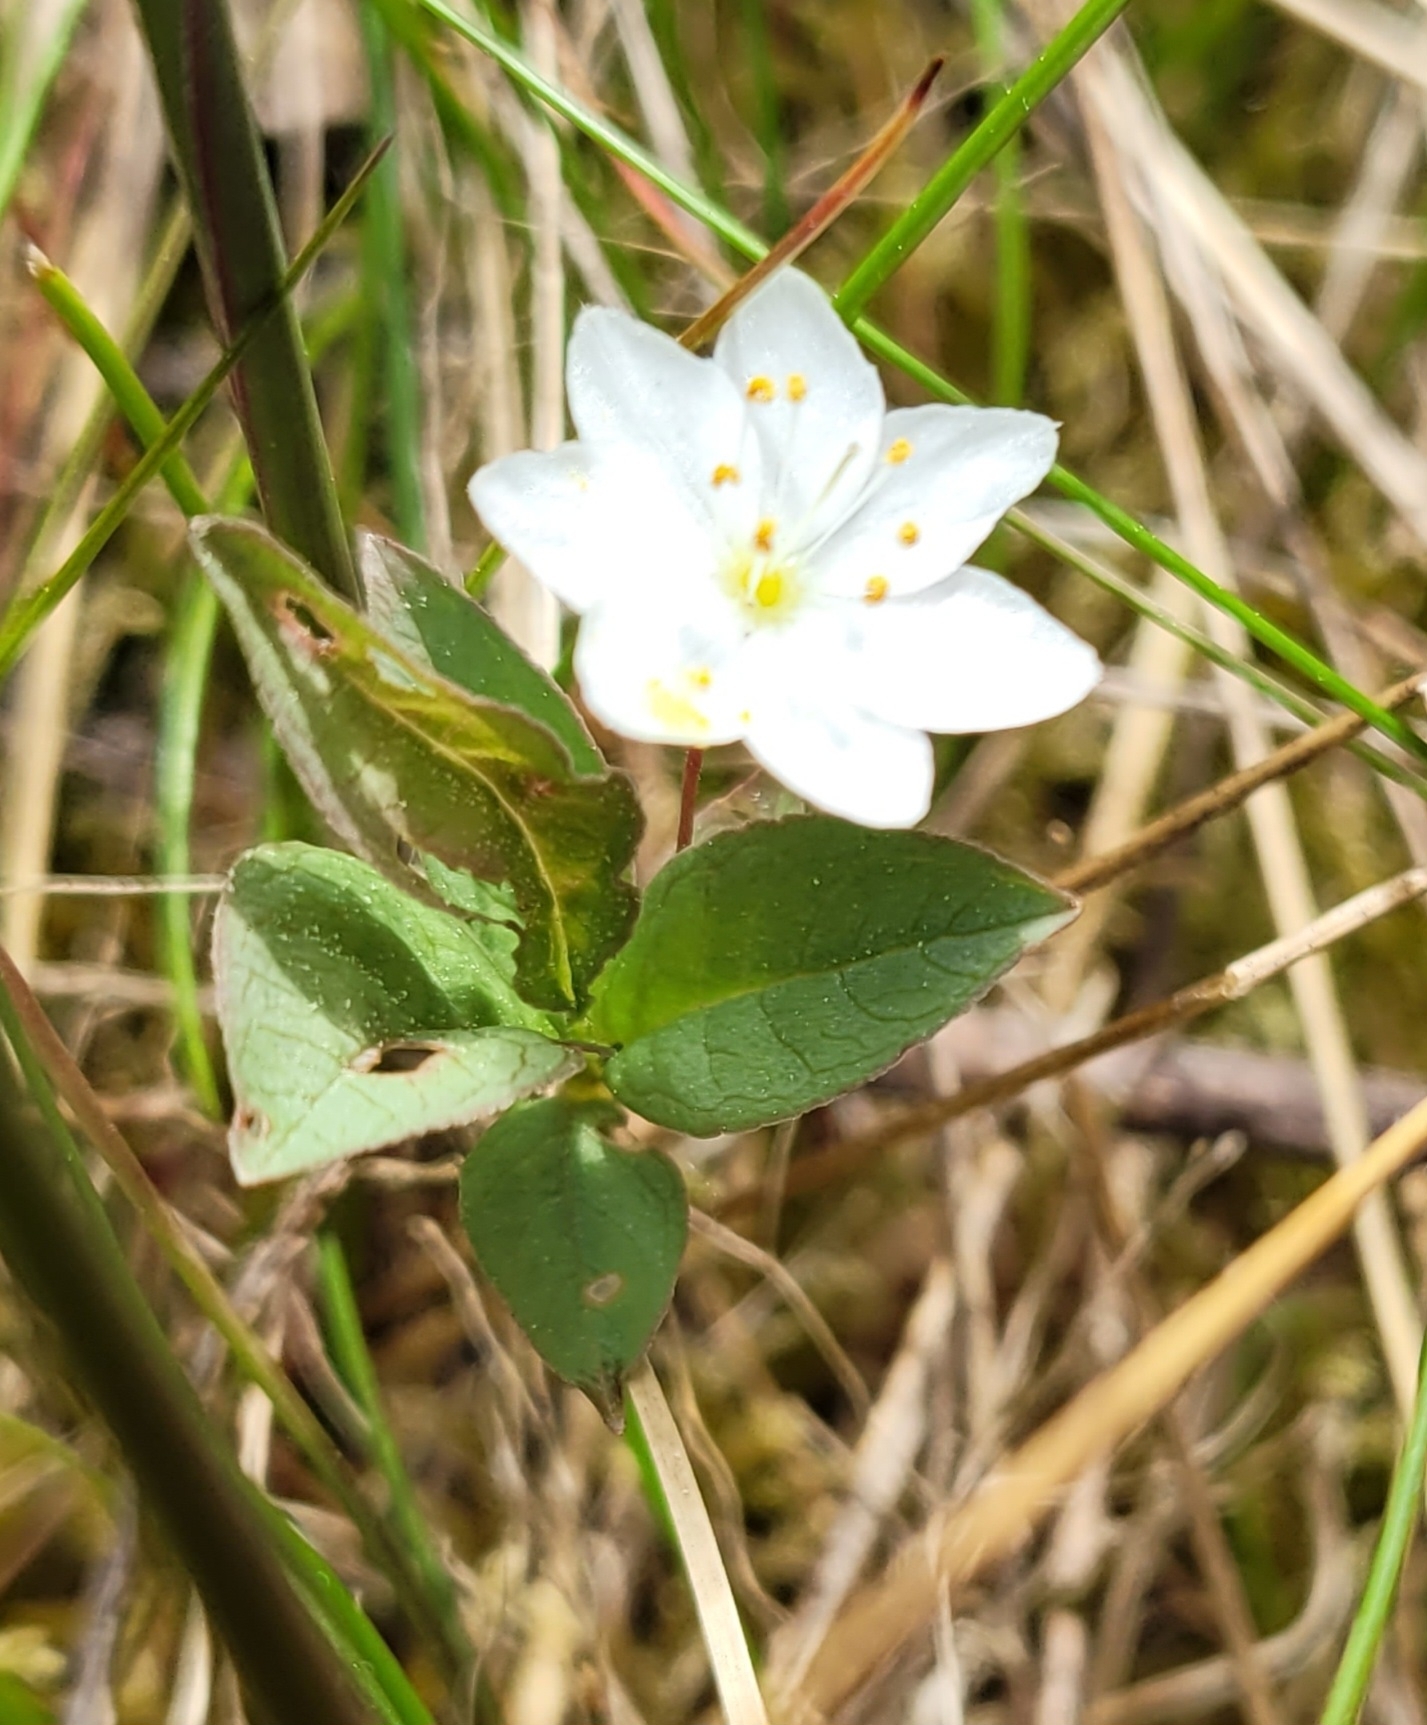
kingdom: Plantae
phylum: Tracheophyta
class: Magnoliopsida
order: Ericales
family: Primulaceae
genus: Lysimachia
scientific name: Lysimachia europaea
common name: Arctic starflower
